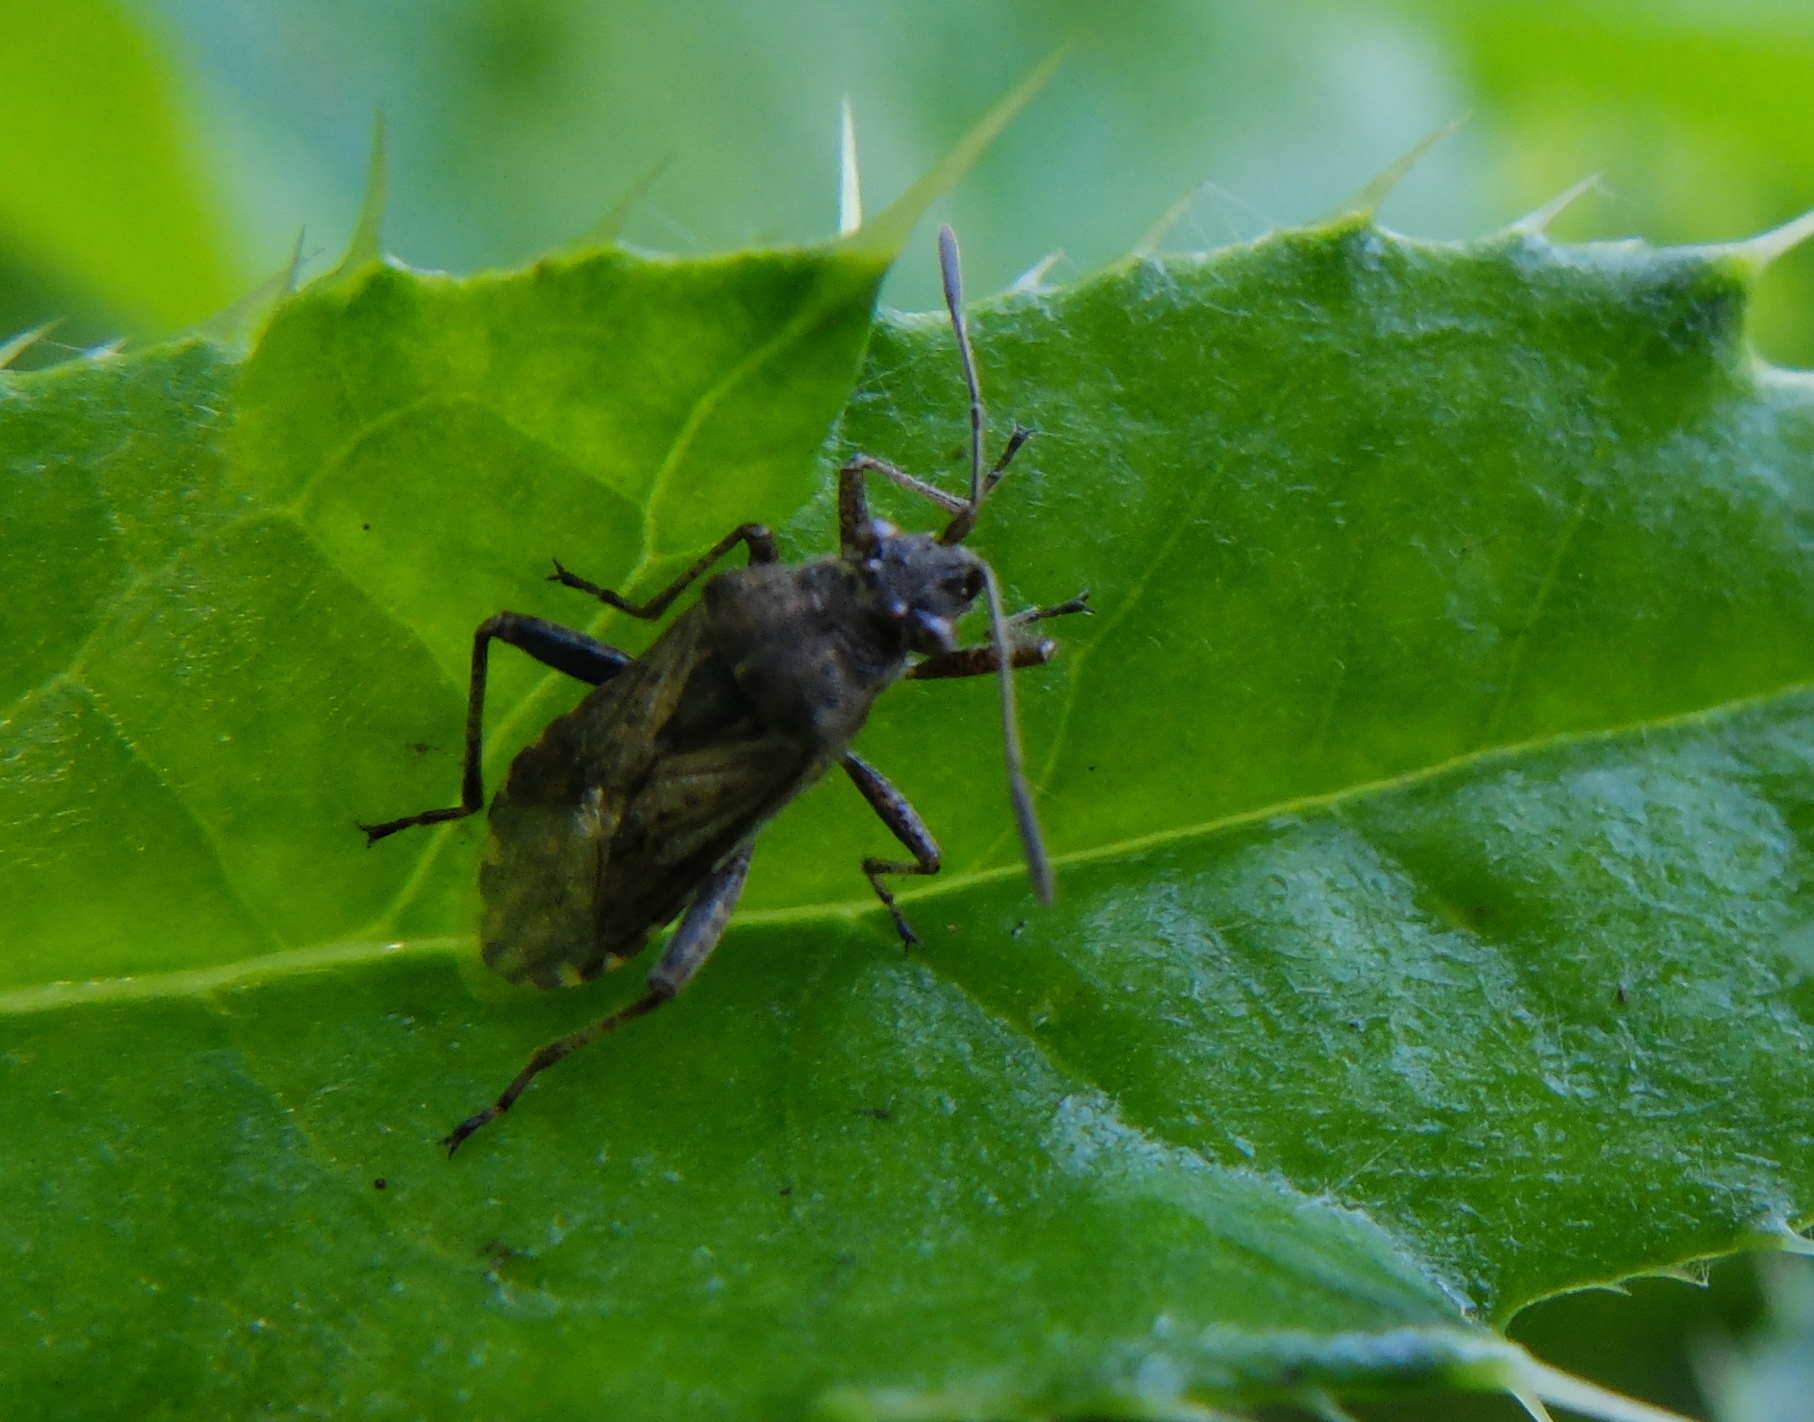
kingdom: Animalia
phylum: Arthropoda
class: Insecta
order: Hemiptera
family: Rhopalidae
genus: Stictopleurus
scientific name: Stictopleurus punctatonervosus
